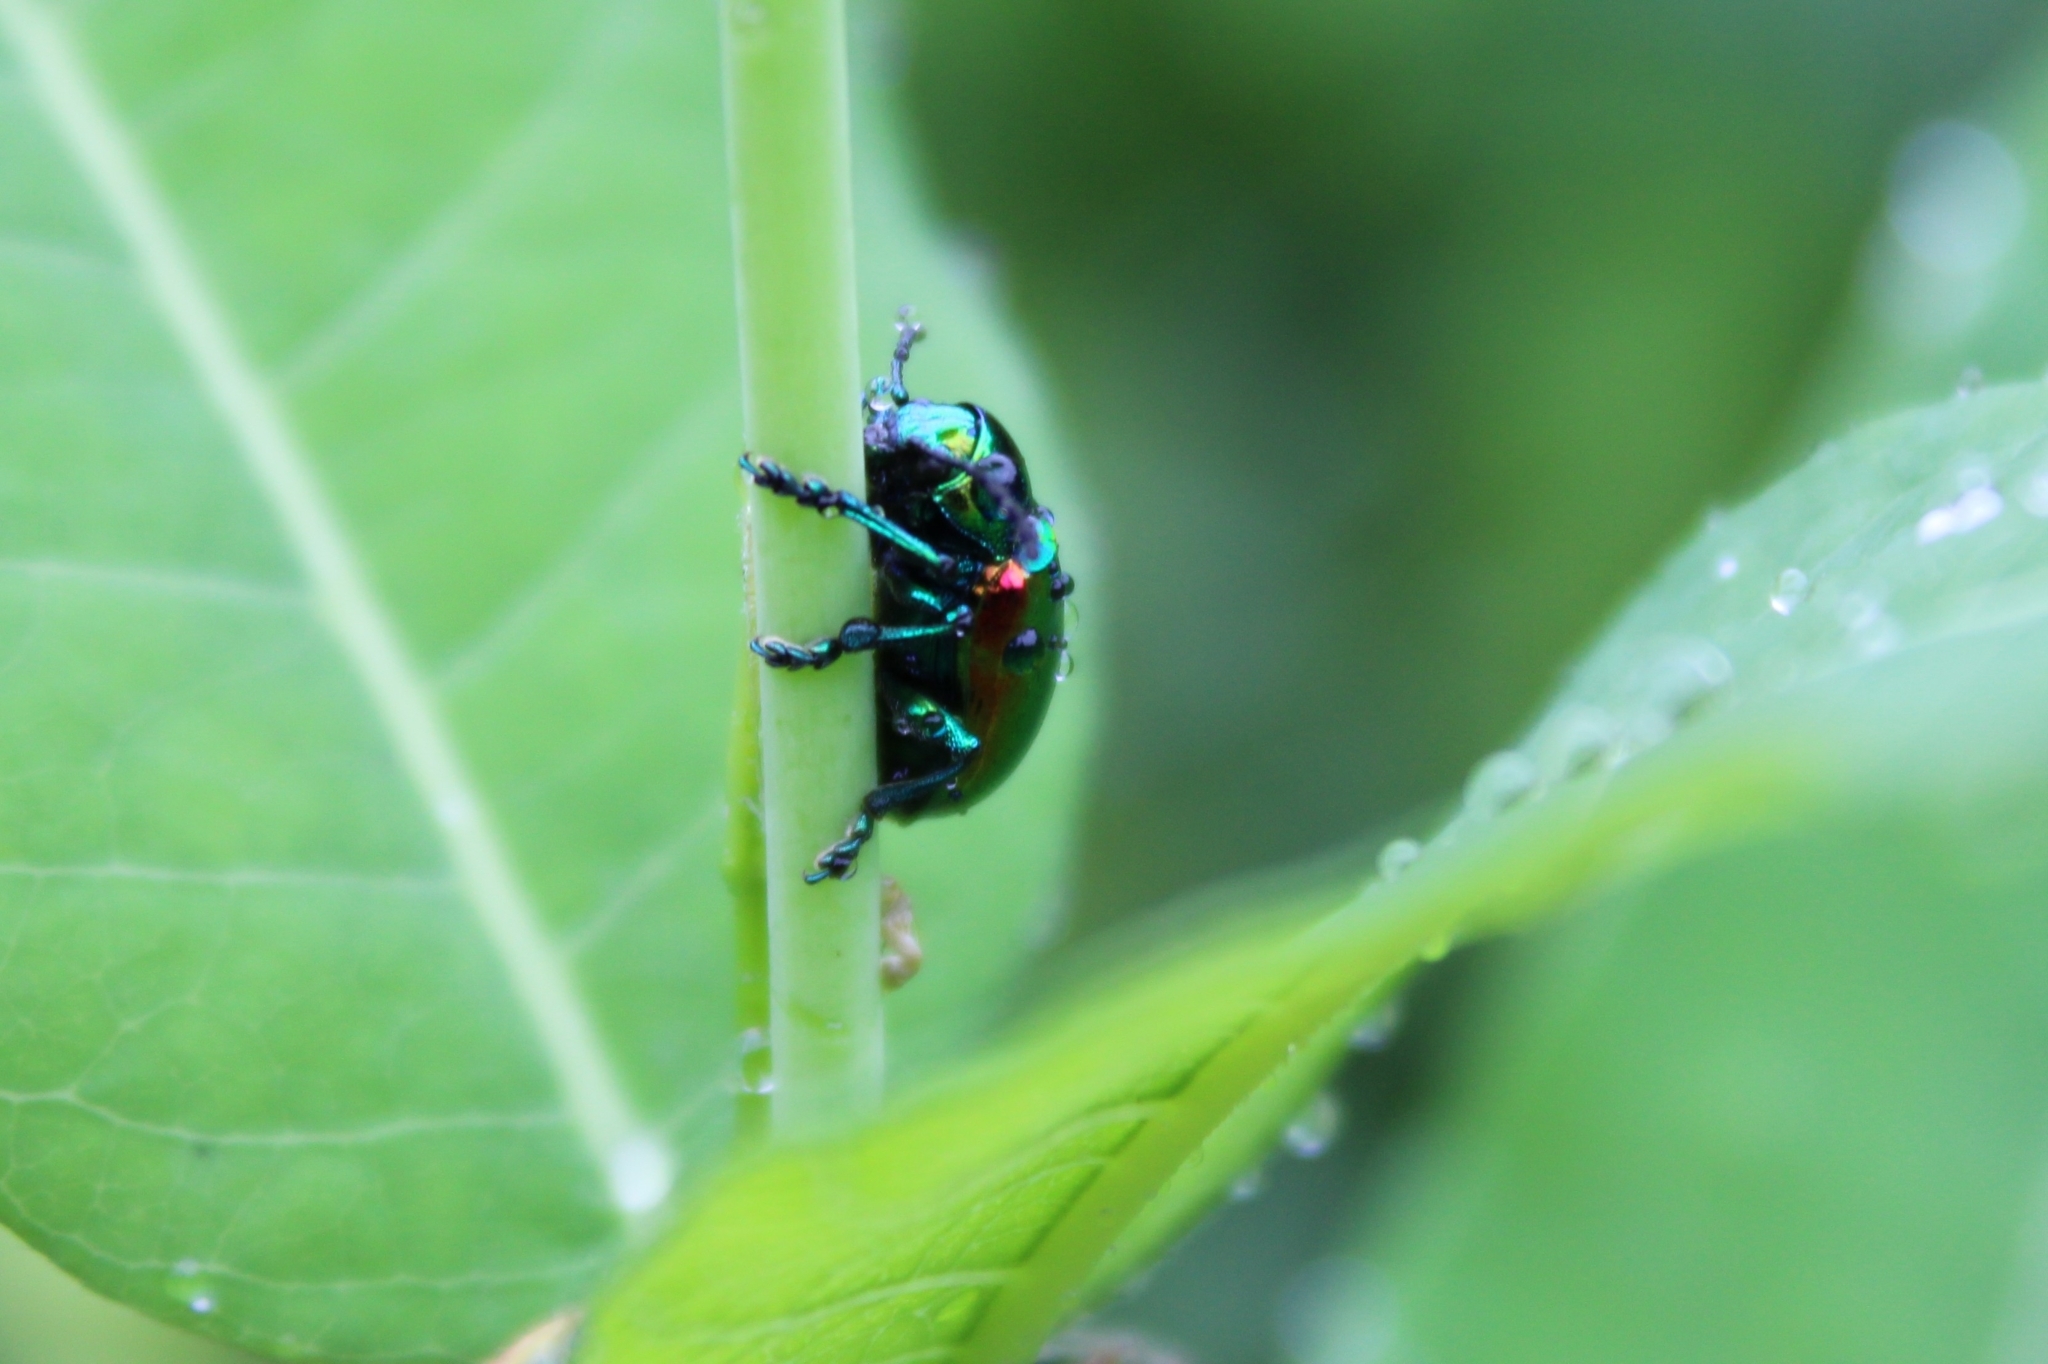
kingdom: Animalia
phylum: Arthropoda
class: Insecta
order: Coleoptera
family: Chrysomelidae
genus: Chrysochus
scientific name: Chrysochus auratus
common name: Dogbane leaf beetle
